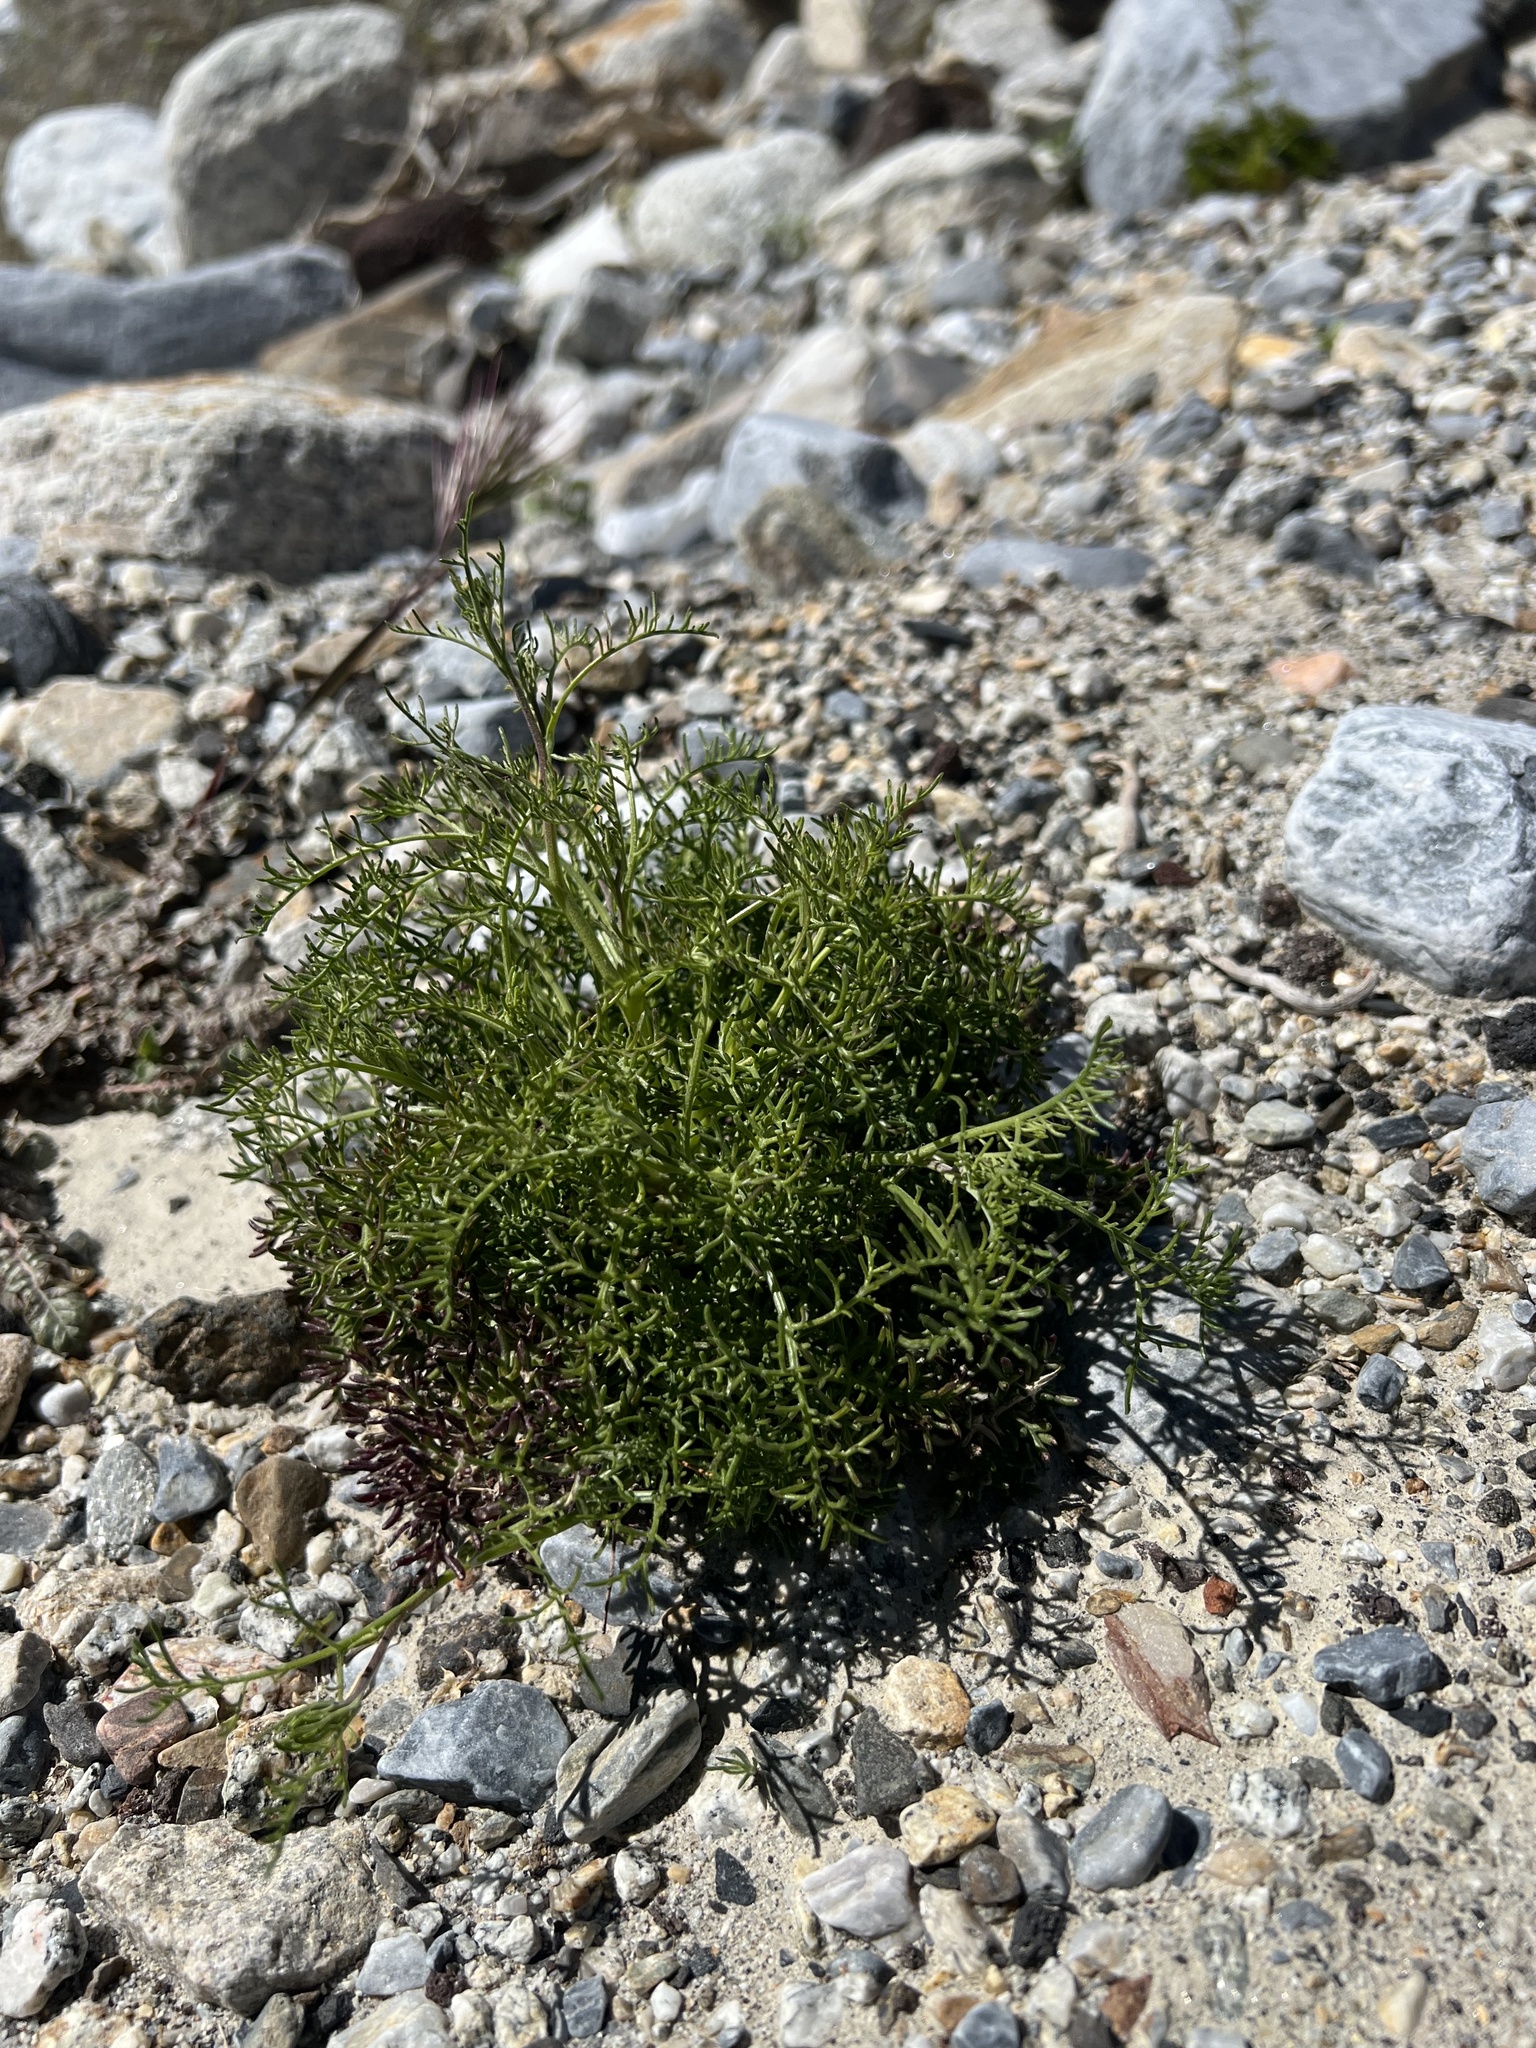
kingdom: Plantae
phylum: Tracheophyta
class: Magnoliopsida
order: Asterales
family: Asteraceae
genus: Chaenactis
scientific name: Chaenactis carphoclinia
